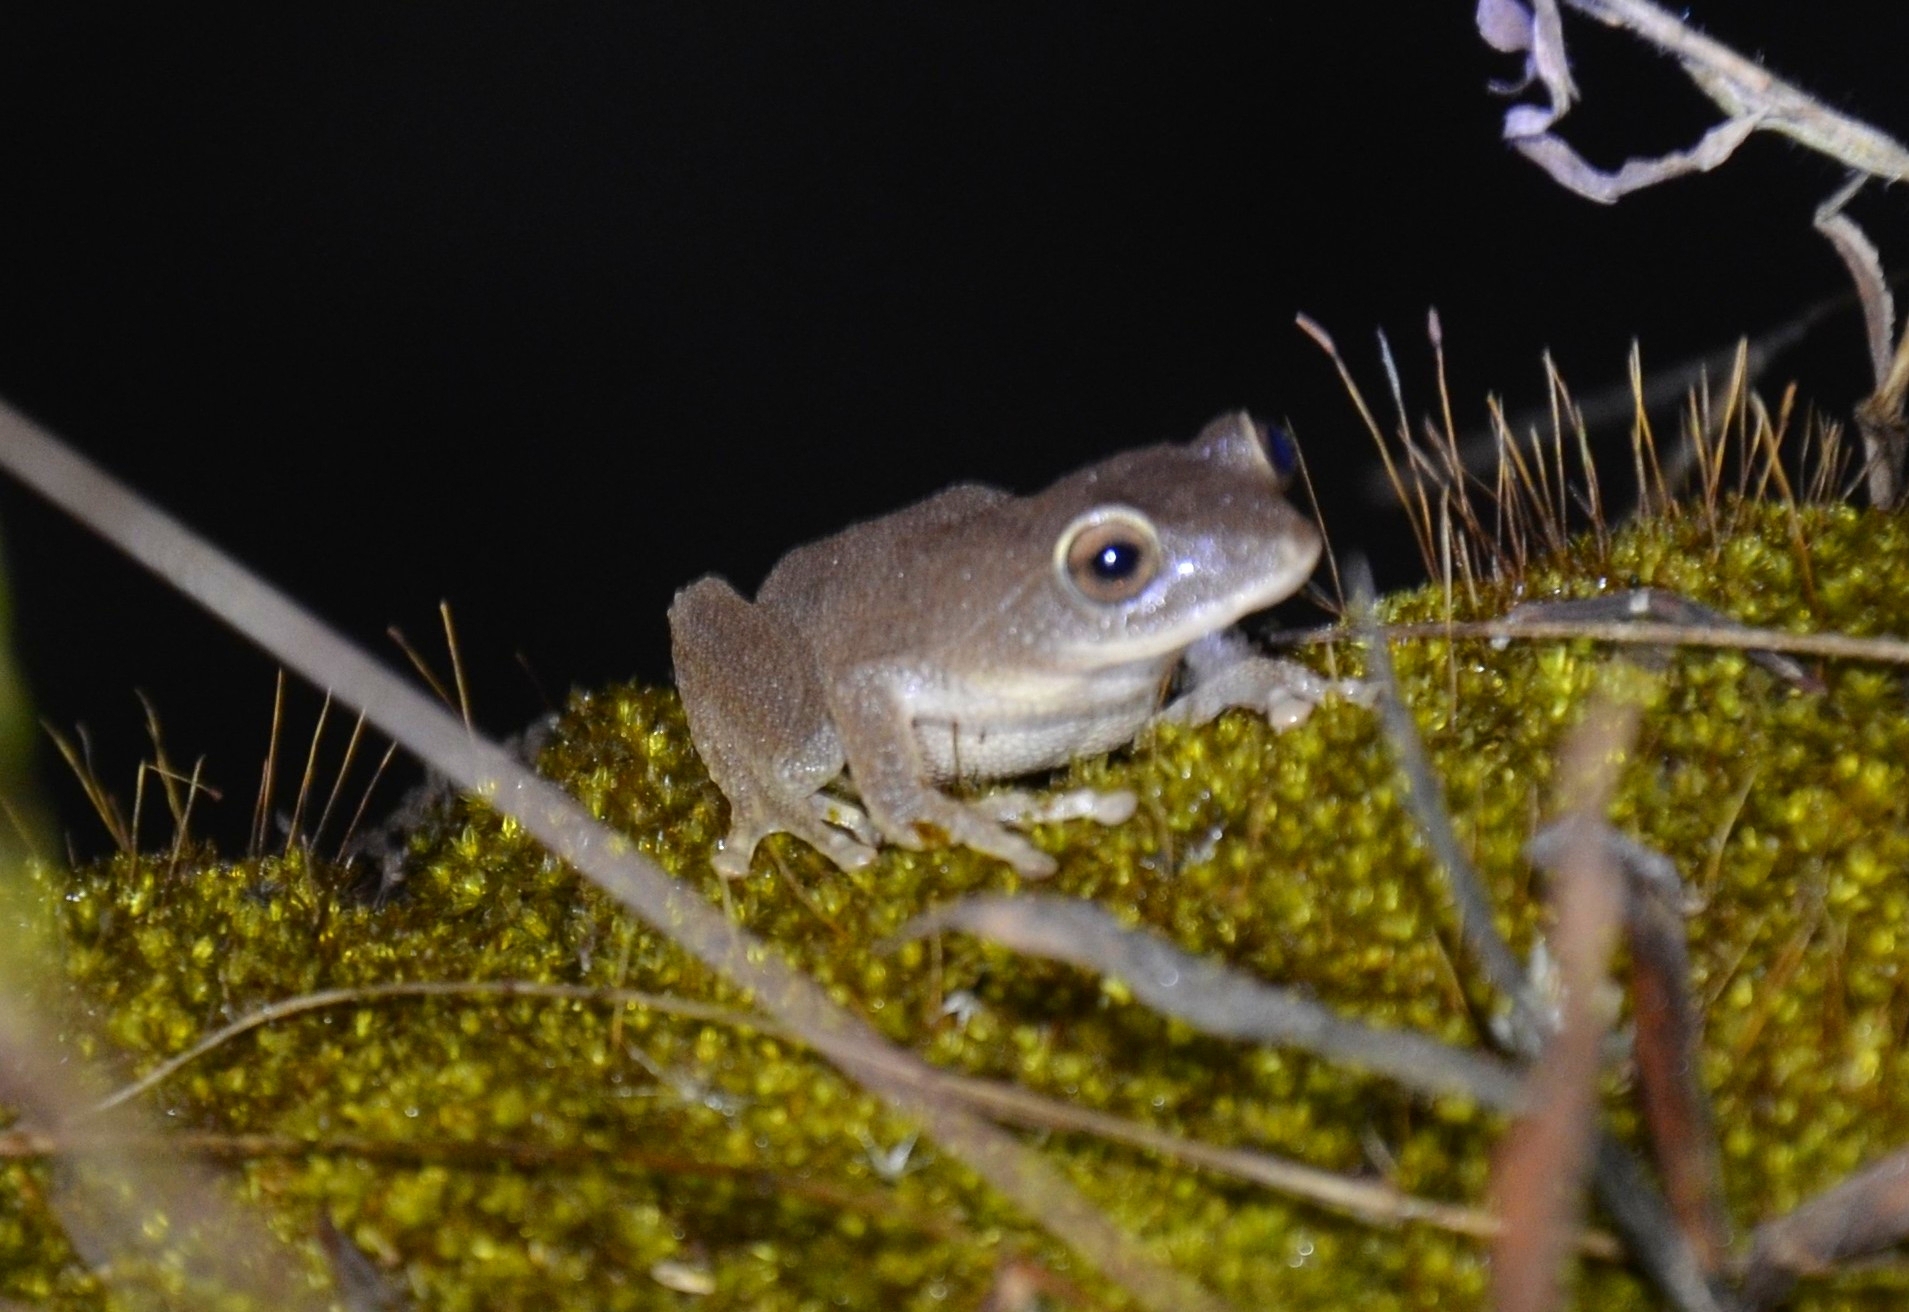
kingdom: Animalia
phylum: Chordata
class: Amphibia
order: Anura
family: Rhacophoridae
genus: Raorchestes
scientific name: Raorchestes ponmudi
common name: Large ponmudi bush frog
